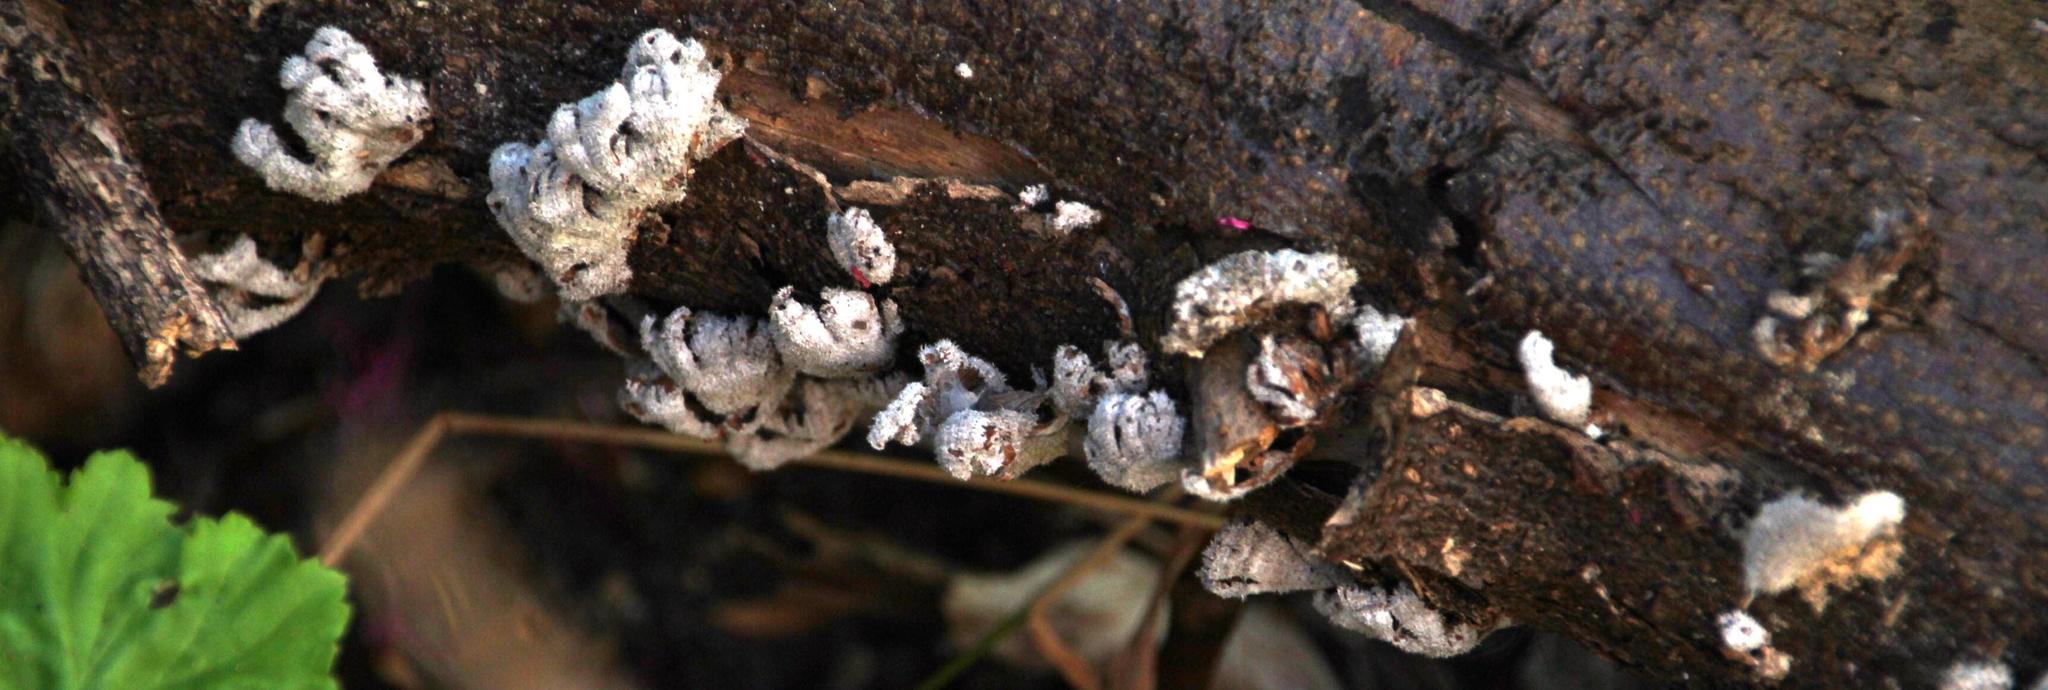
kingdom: Fungi
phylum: Basidiomycota
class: Agaricomycetes
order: Agaricales
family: Schizophyllaceae
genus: Schizophyllum
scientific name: Schizophyllum commune
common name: Common porecrust
